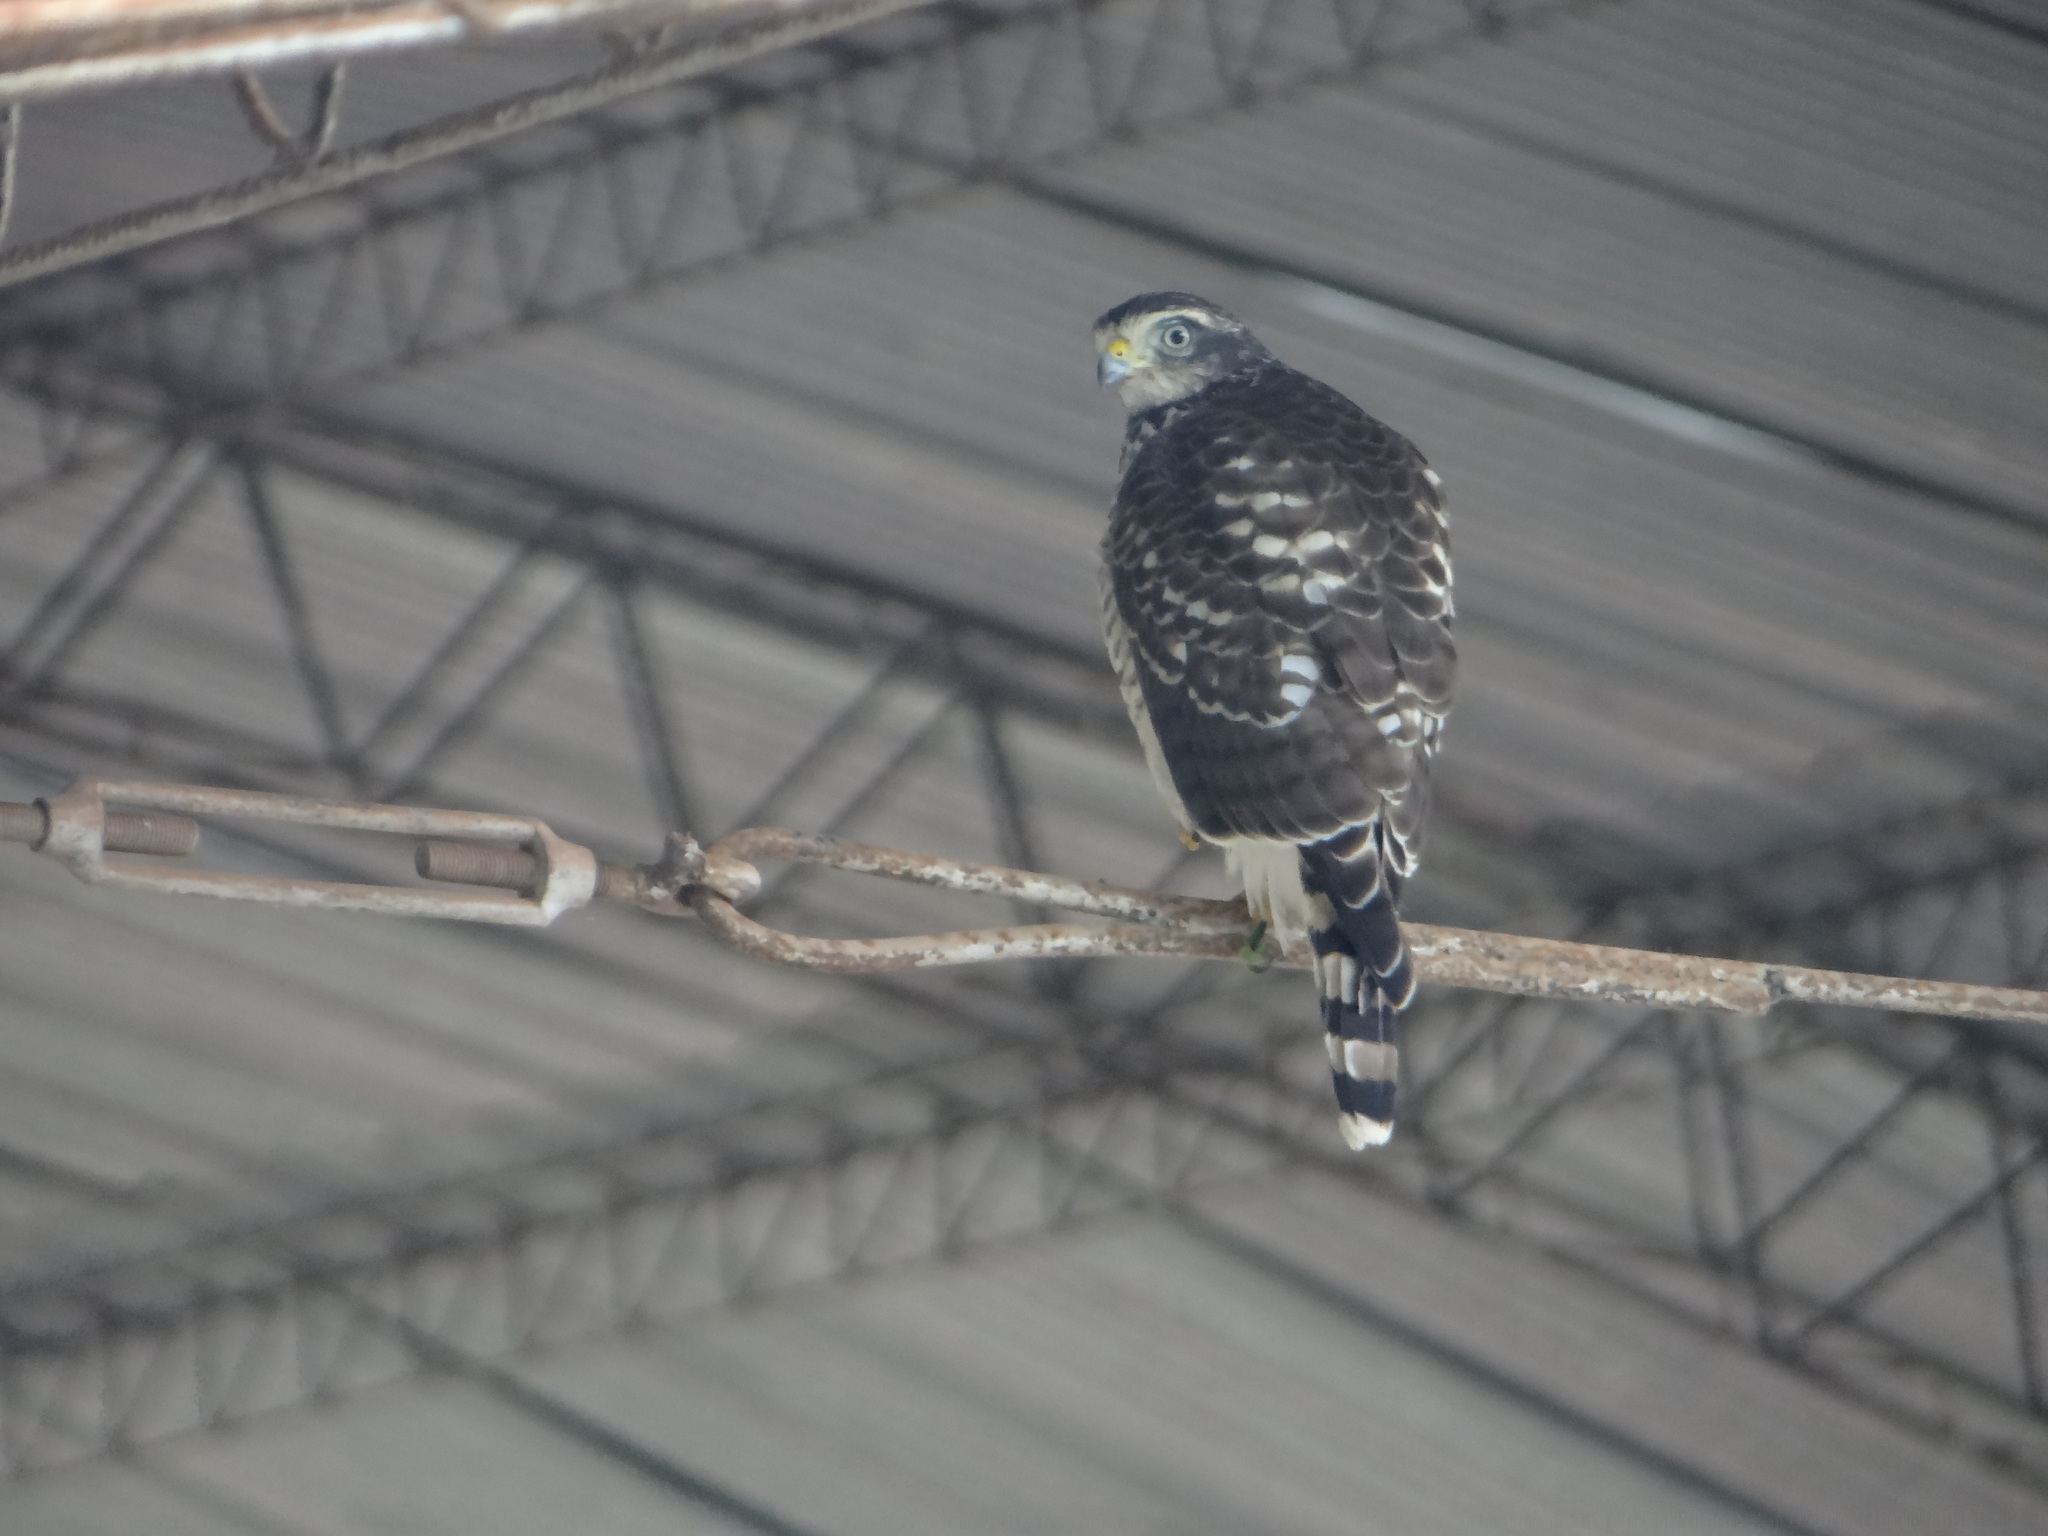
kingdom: Animalia
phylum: Chordata
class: Aves
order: Accipitriformes
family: Accipitridae
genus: Rupornis
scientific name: Rupornis magnirostris
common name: Roadside hawk
